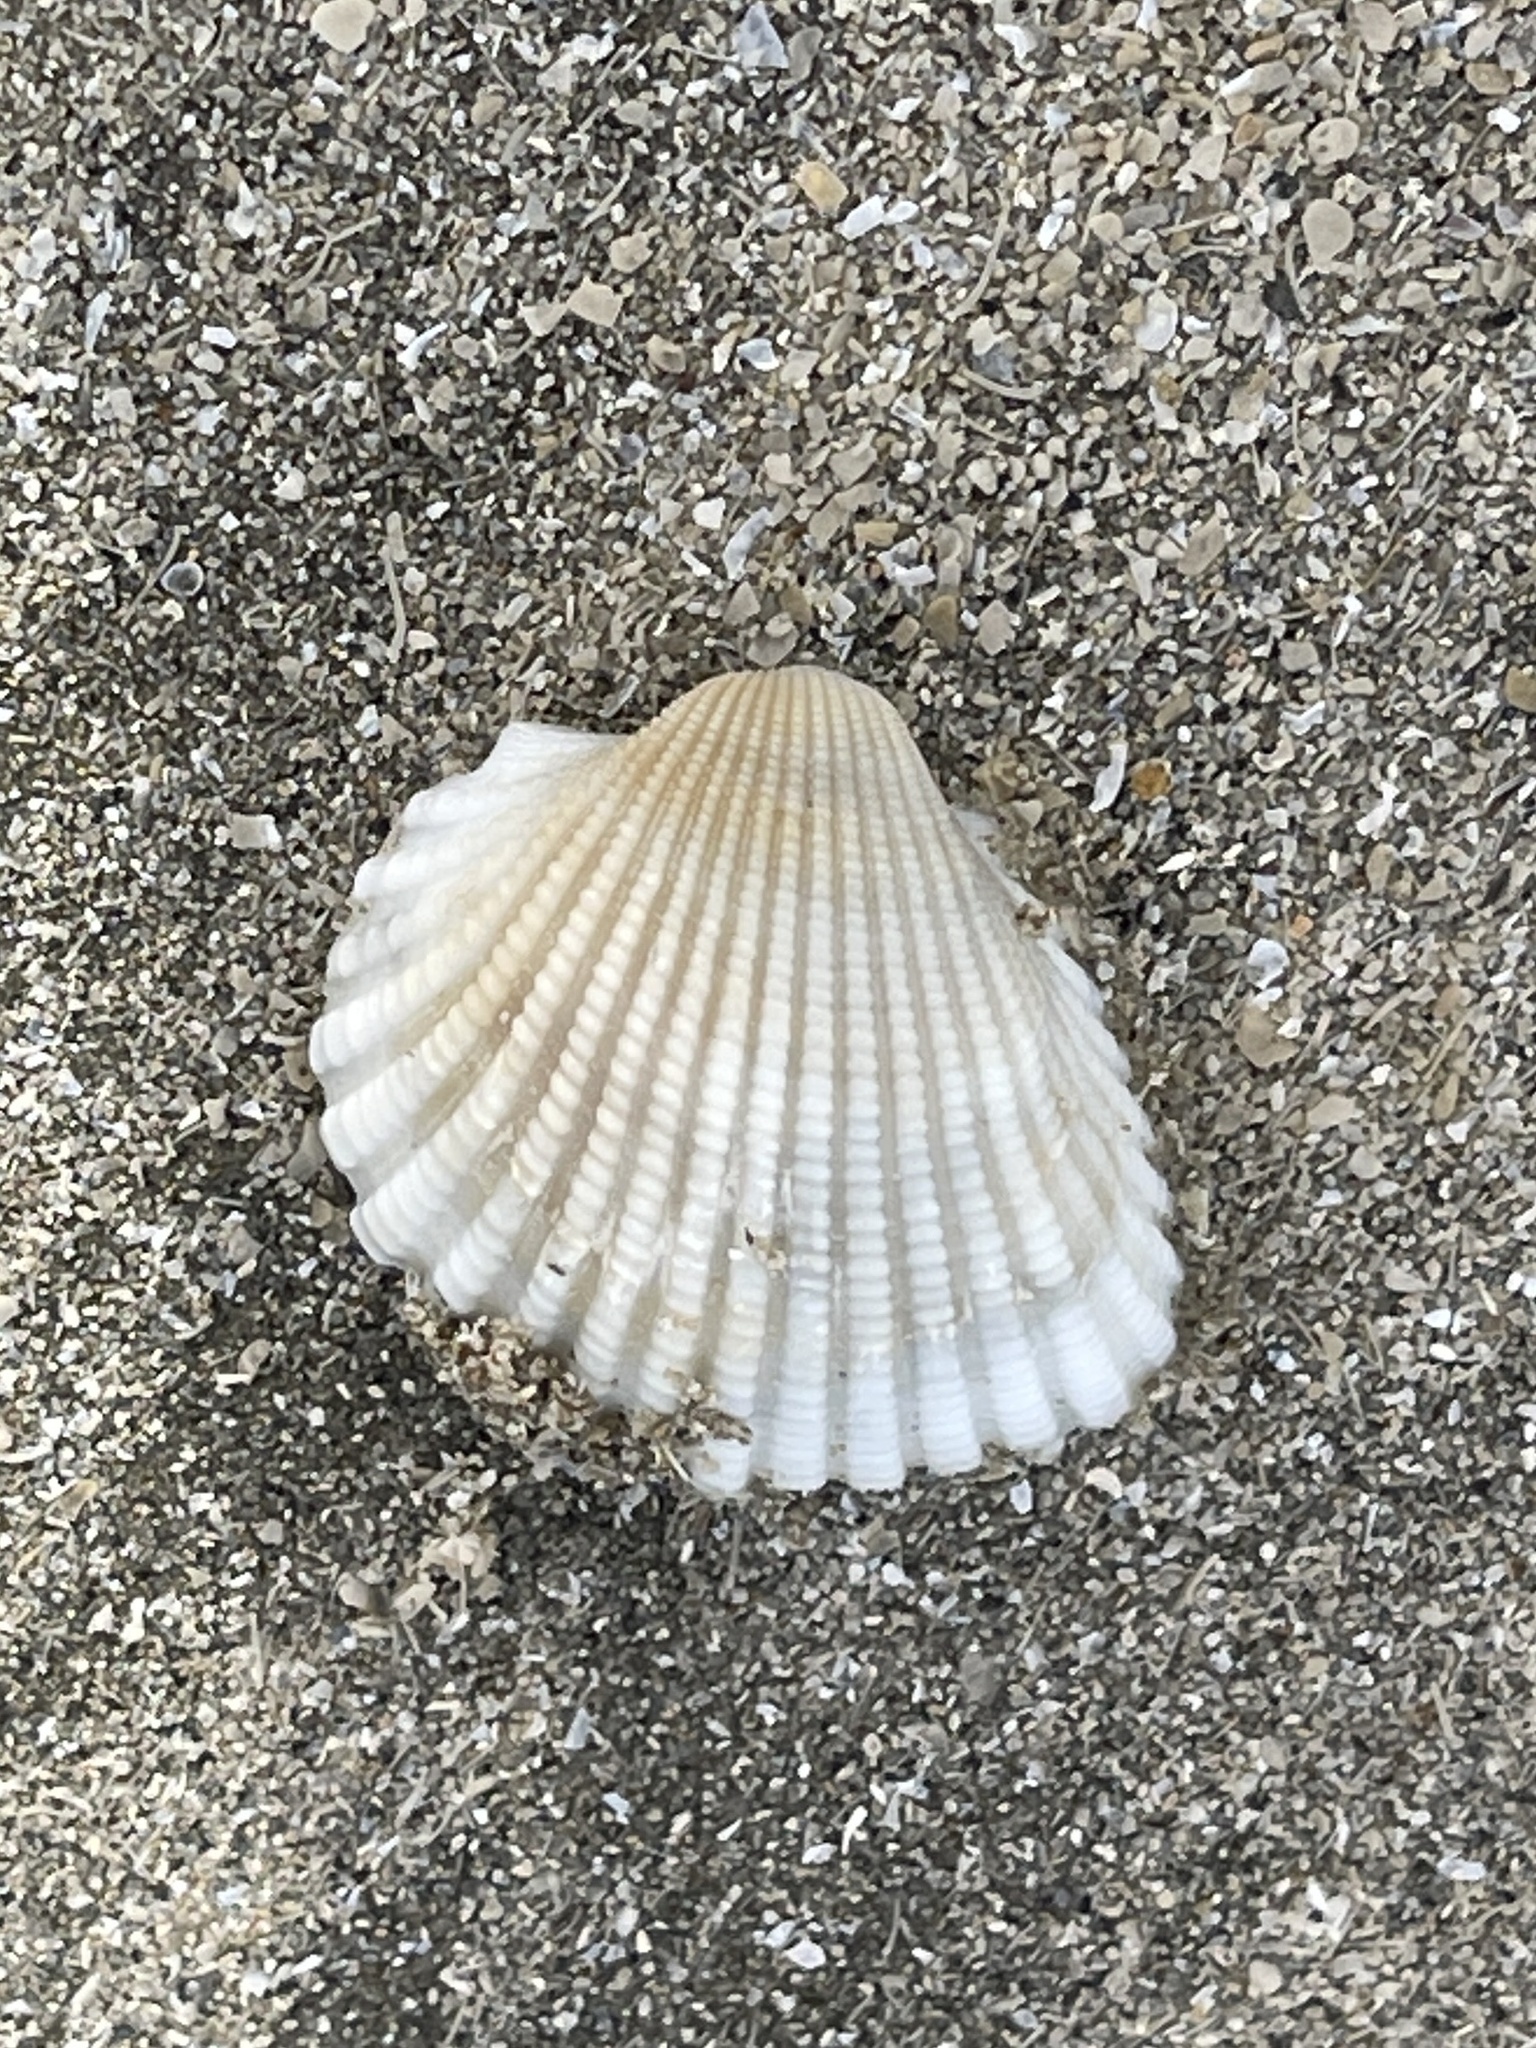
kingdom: Animalia
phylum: Mollusca
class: Bivalvia
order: Arcida
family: Arcidae
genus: Anadara
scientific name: Anadara brasiliana
